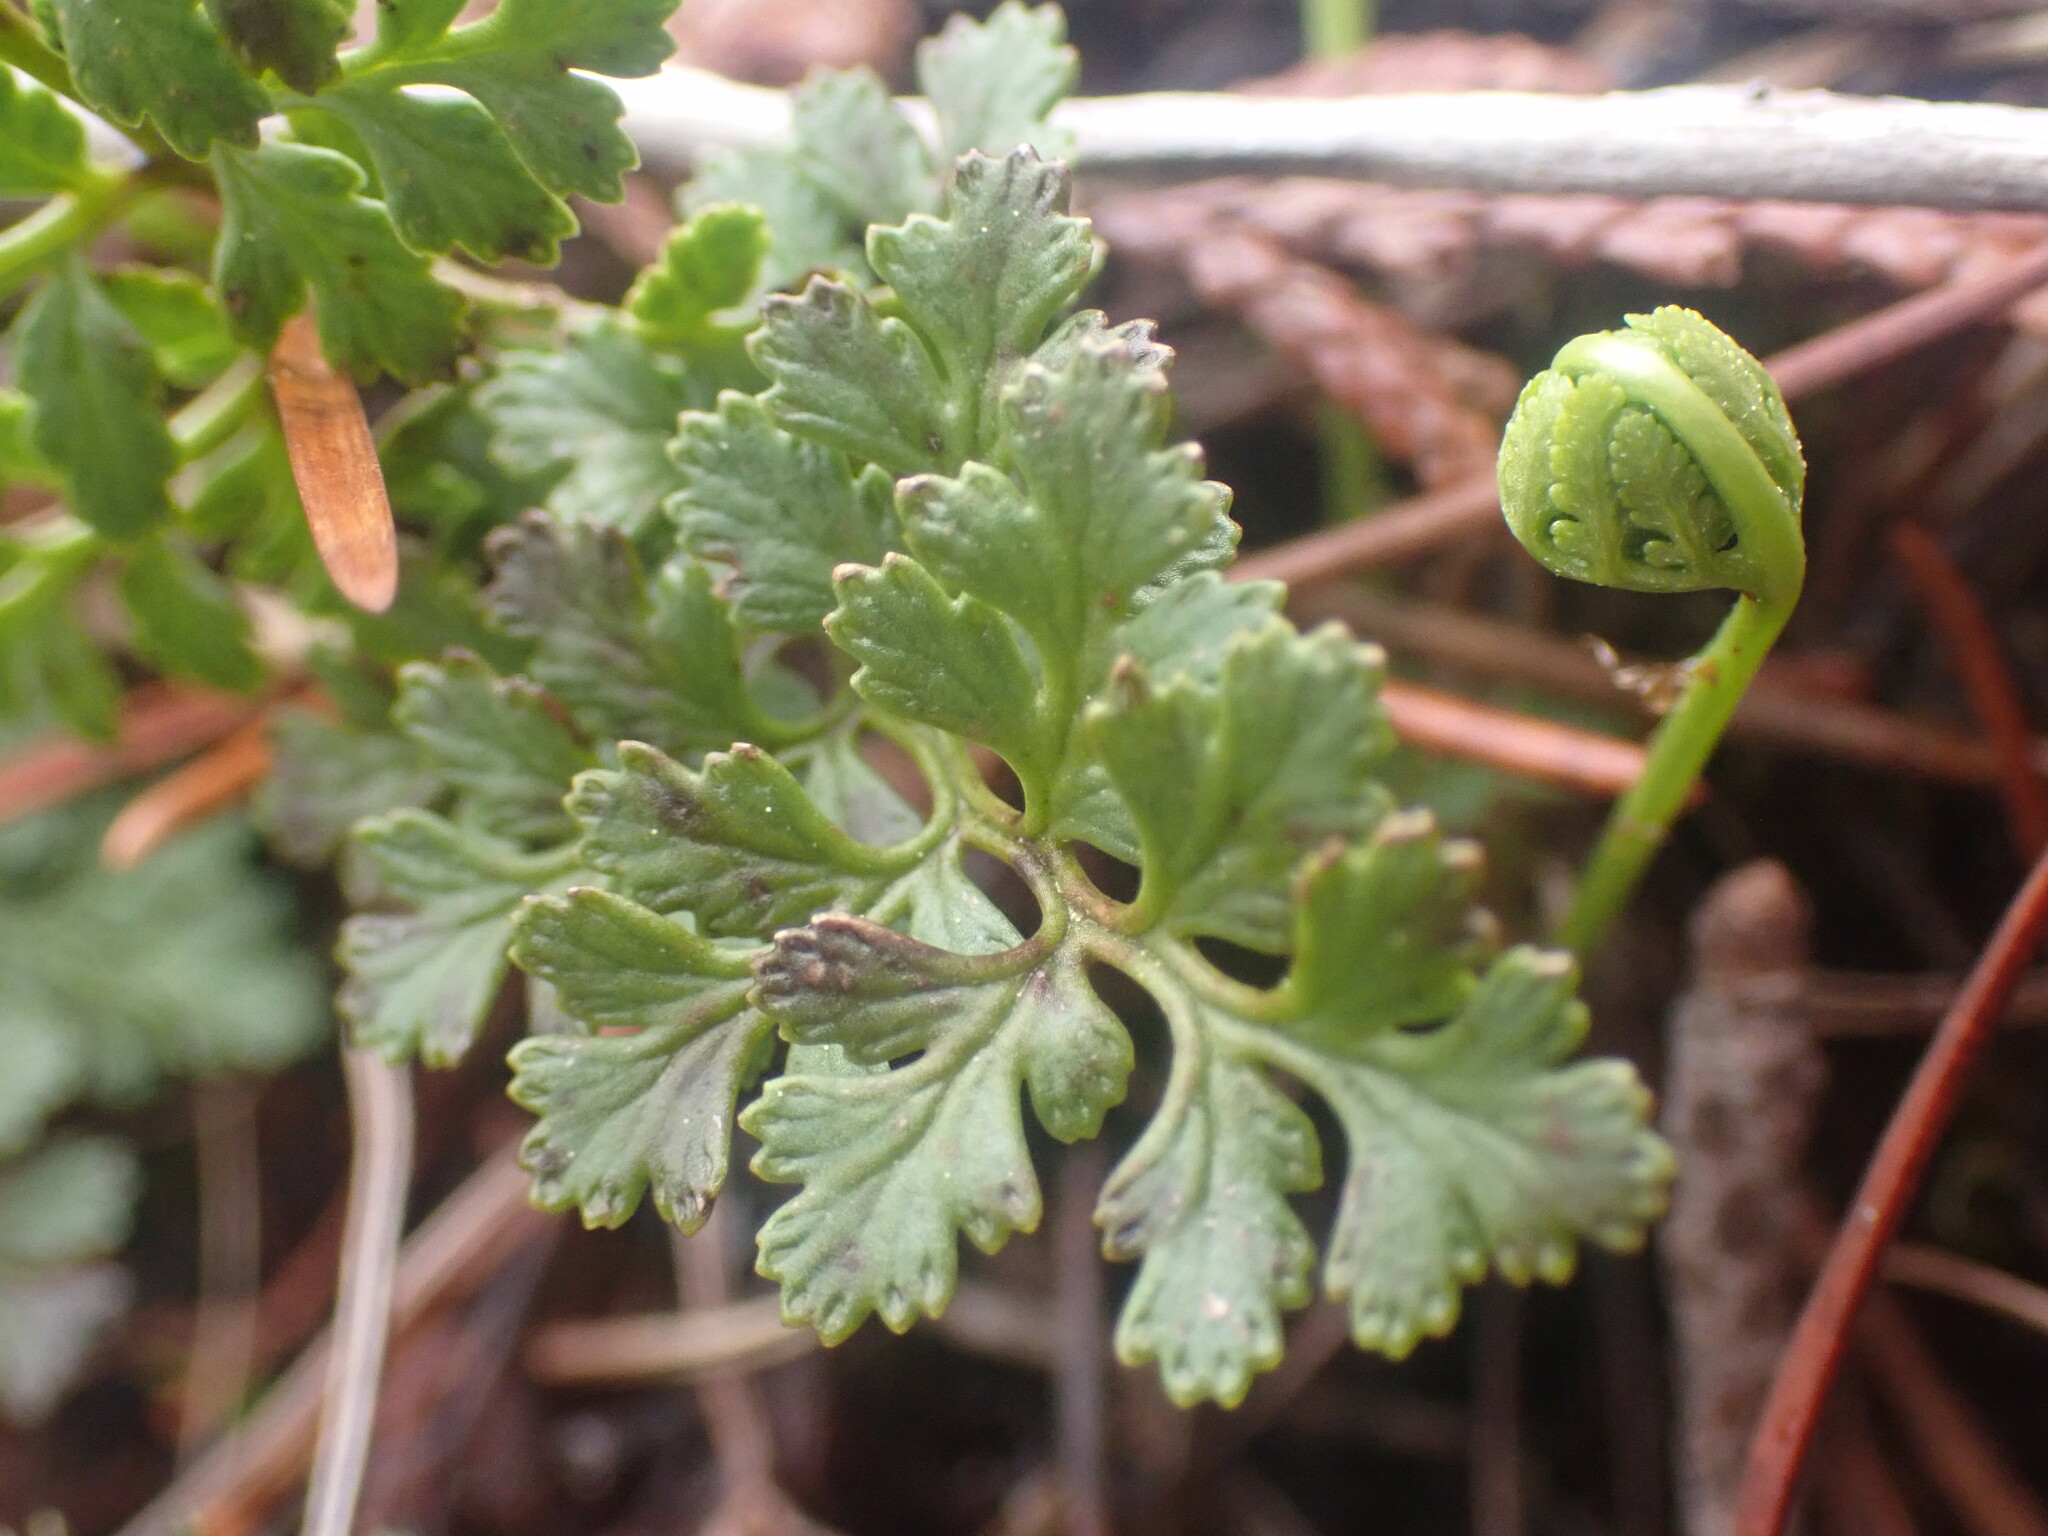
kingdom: Plantae
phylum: Tracheophyta
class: Polypodiopsida
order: Polypodiales
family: Pteridaceae
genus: Cryptogramma
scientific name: Cryptogramma acrostichoides
